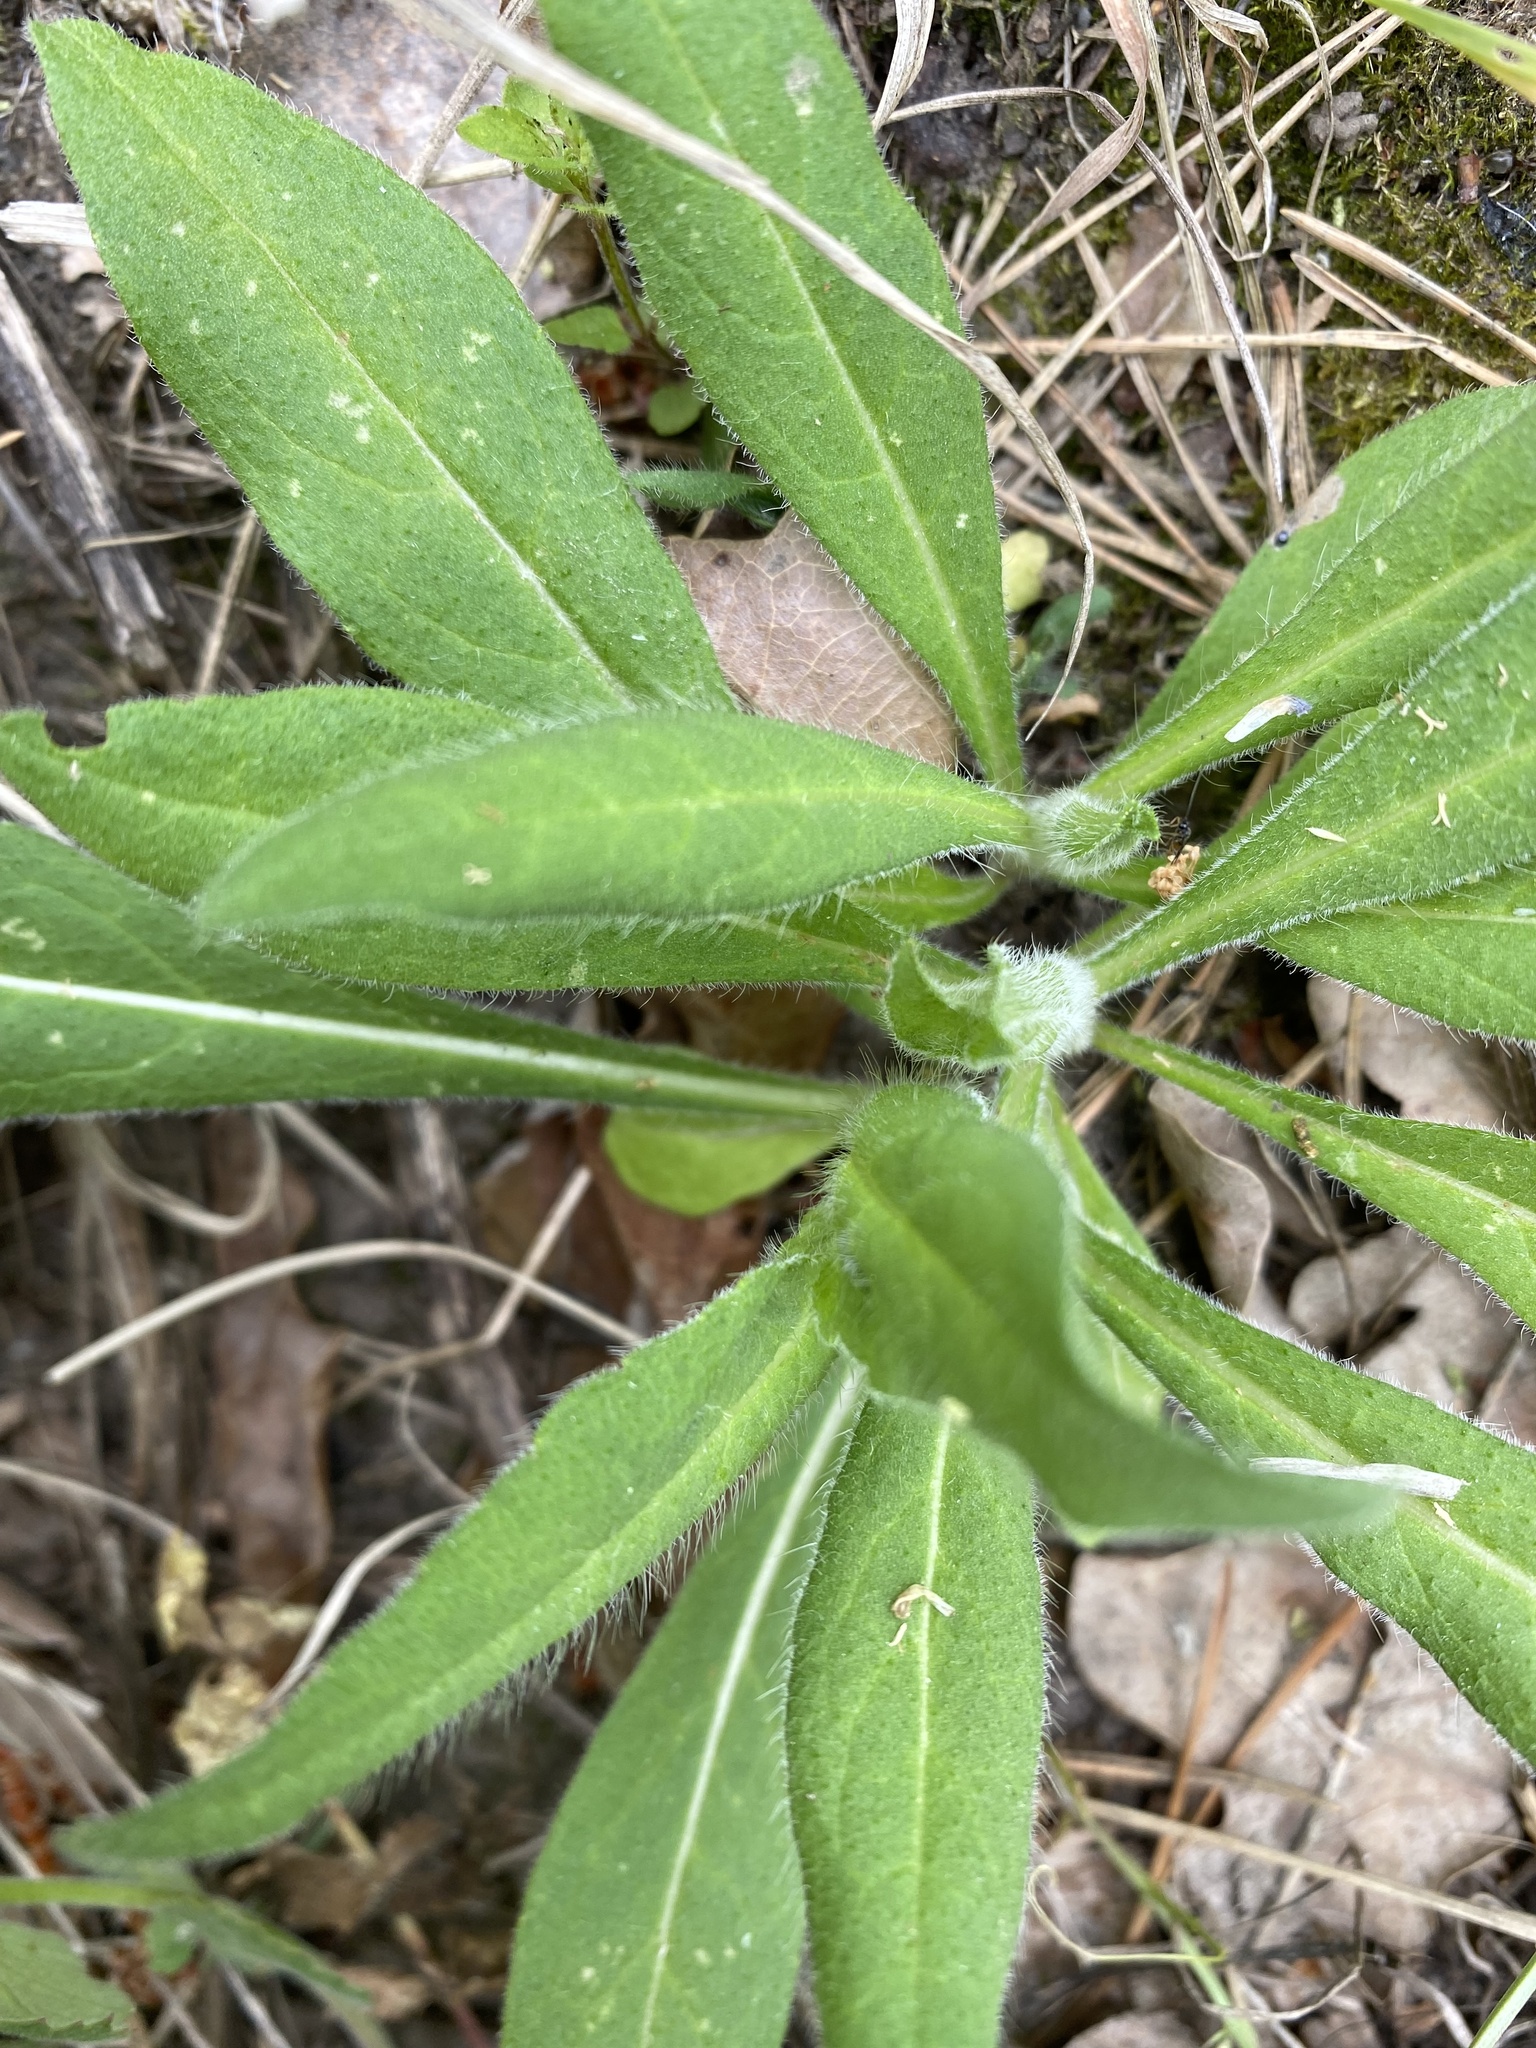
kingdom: Plantae
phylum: Tracheophyta
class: Magnoliopsida
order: Dipsacales
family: Caprifoliaceae
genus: Knautia
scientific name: Knautia arvensis
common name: Field scabiosa
